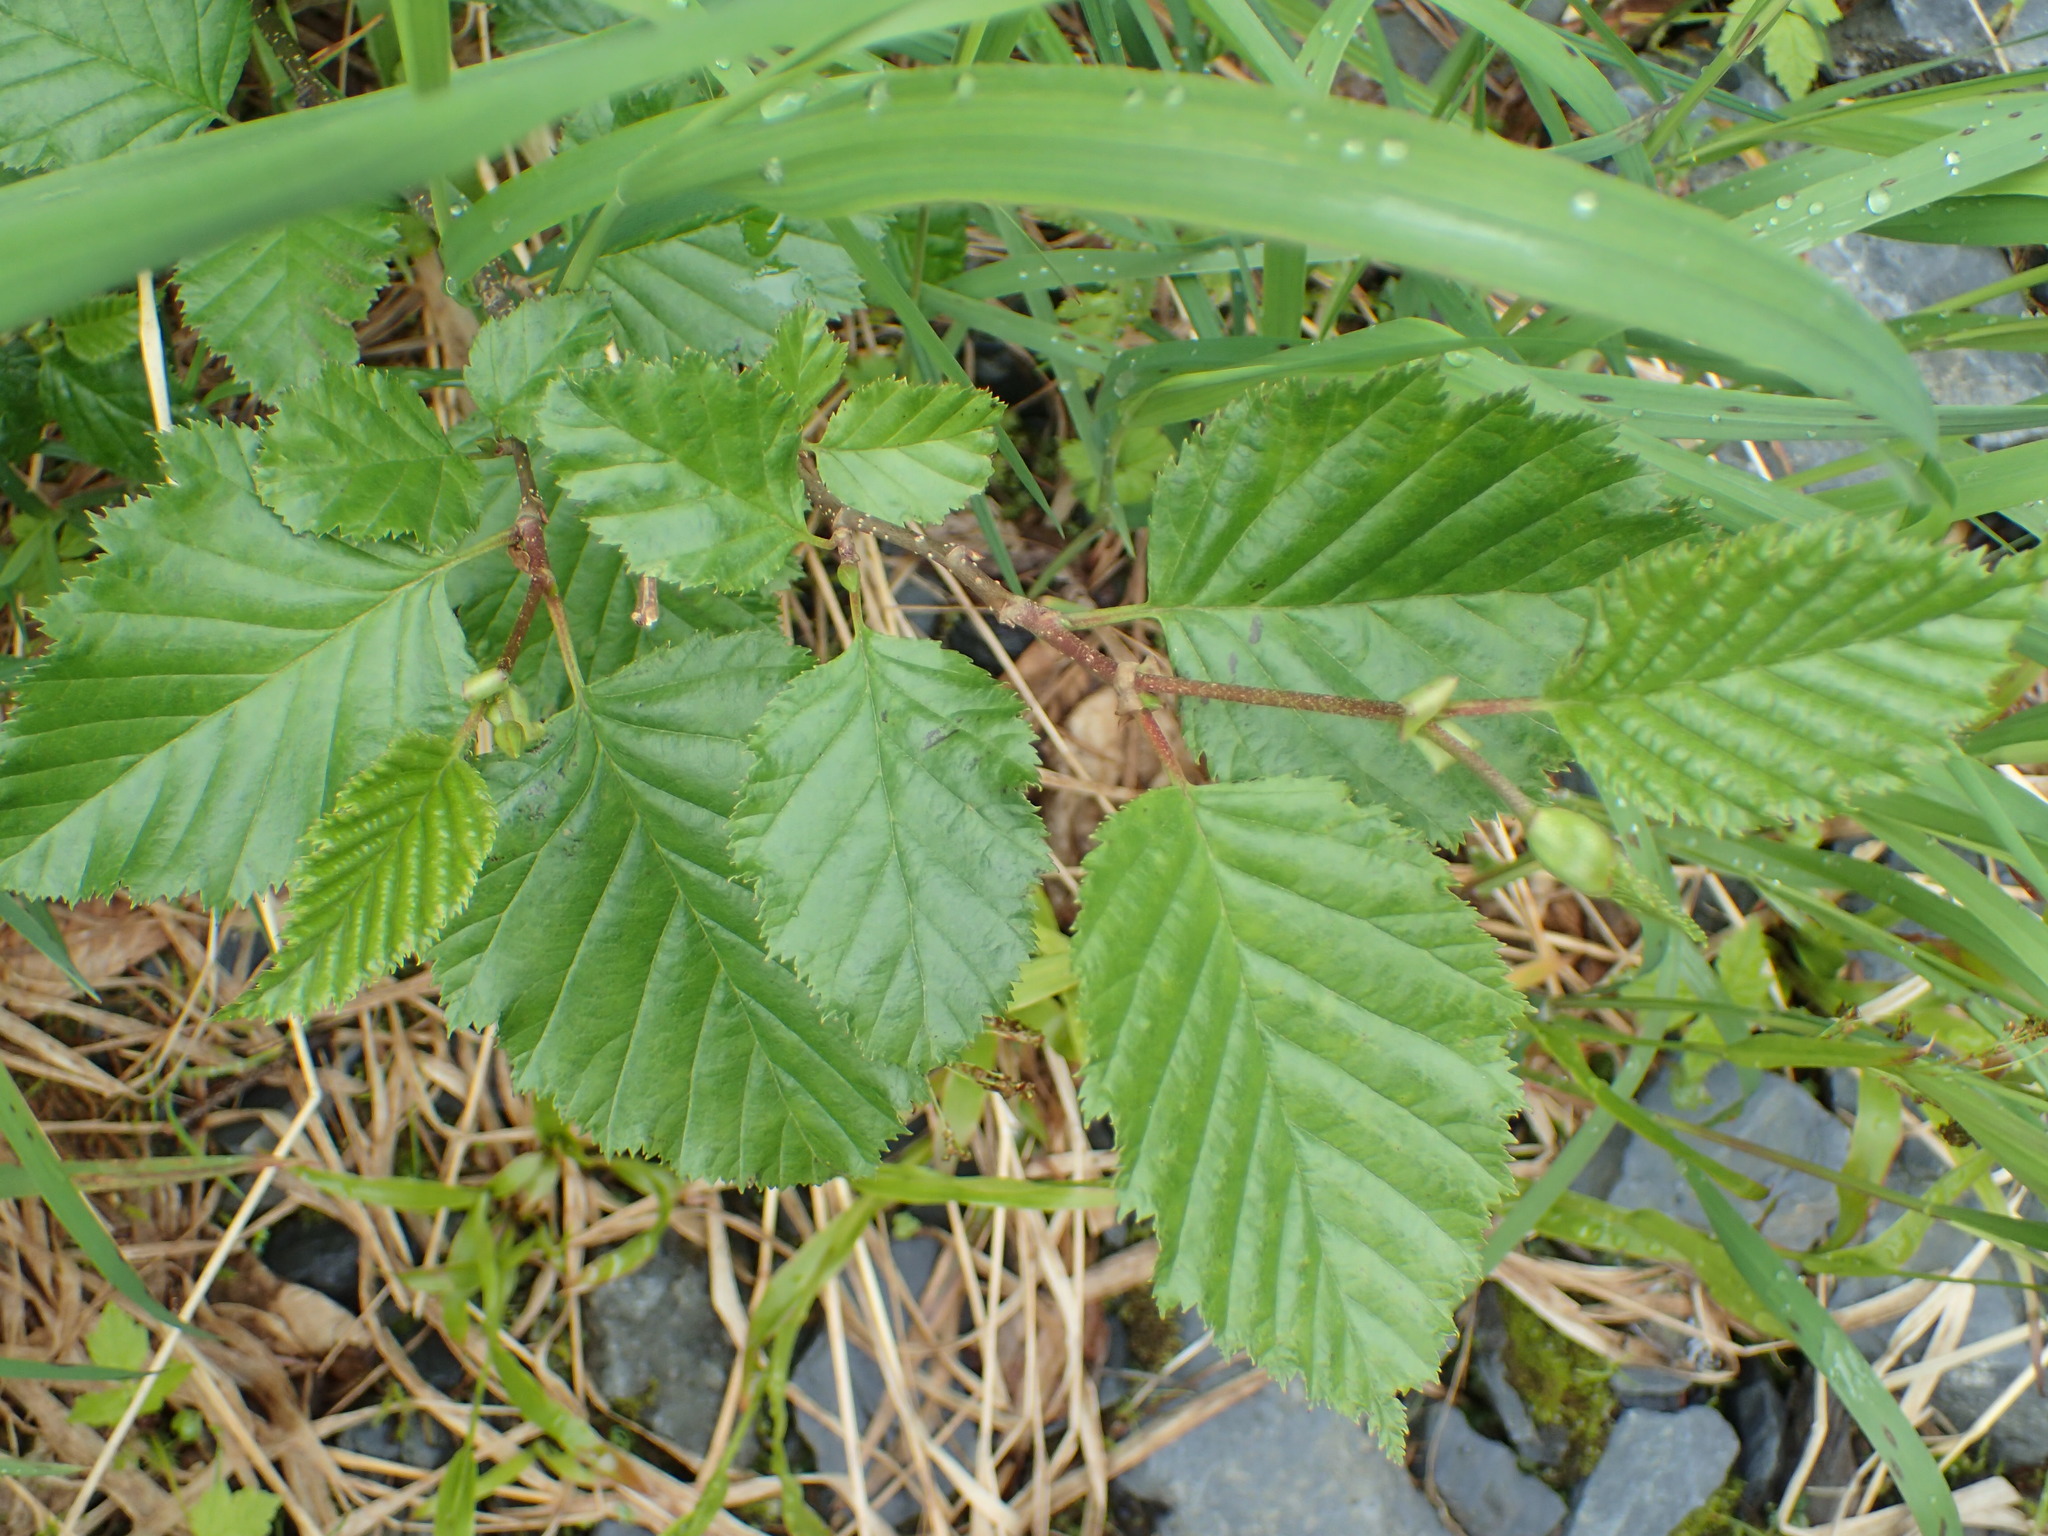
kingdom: Plantae
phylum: Tracheophyta
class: Magnoliopsida
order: Fagales
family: Betulaceae
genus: Alnus
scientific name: Alnus alnobetula
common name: Green alder
